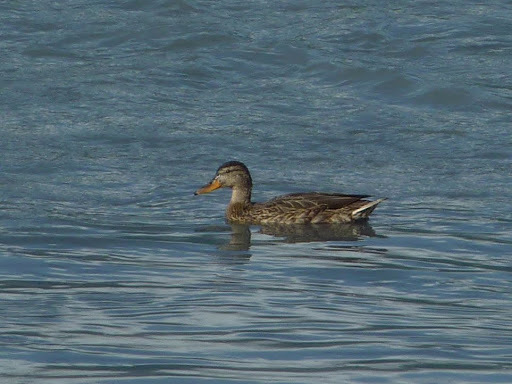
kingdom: Animalia
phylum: Chordata
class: Aves
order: Anseriformes
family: Anatidae
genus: Anas
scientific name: Anas platyrhynchos
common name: Mallard
